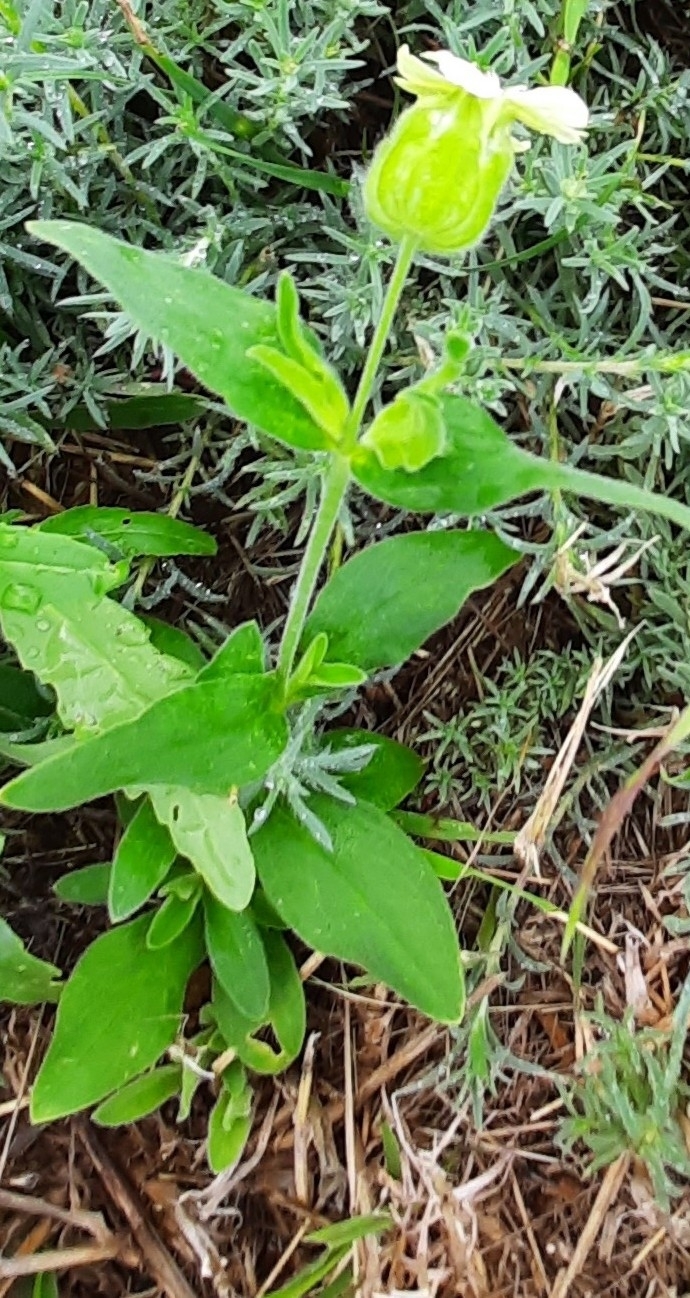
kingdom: Plantae
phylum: Tracheophyta
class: Magnoliopsida
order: Caryophyllales
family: Caryophyllaceae
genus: Silene
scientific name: Silene latifolia
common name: White campion
